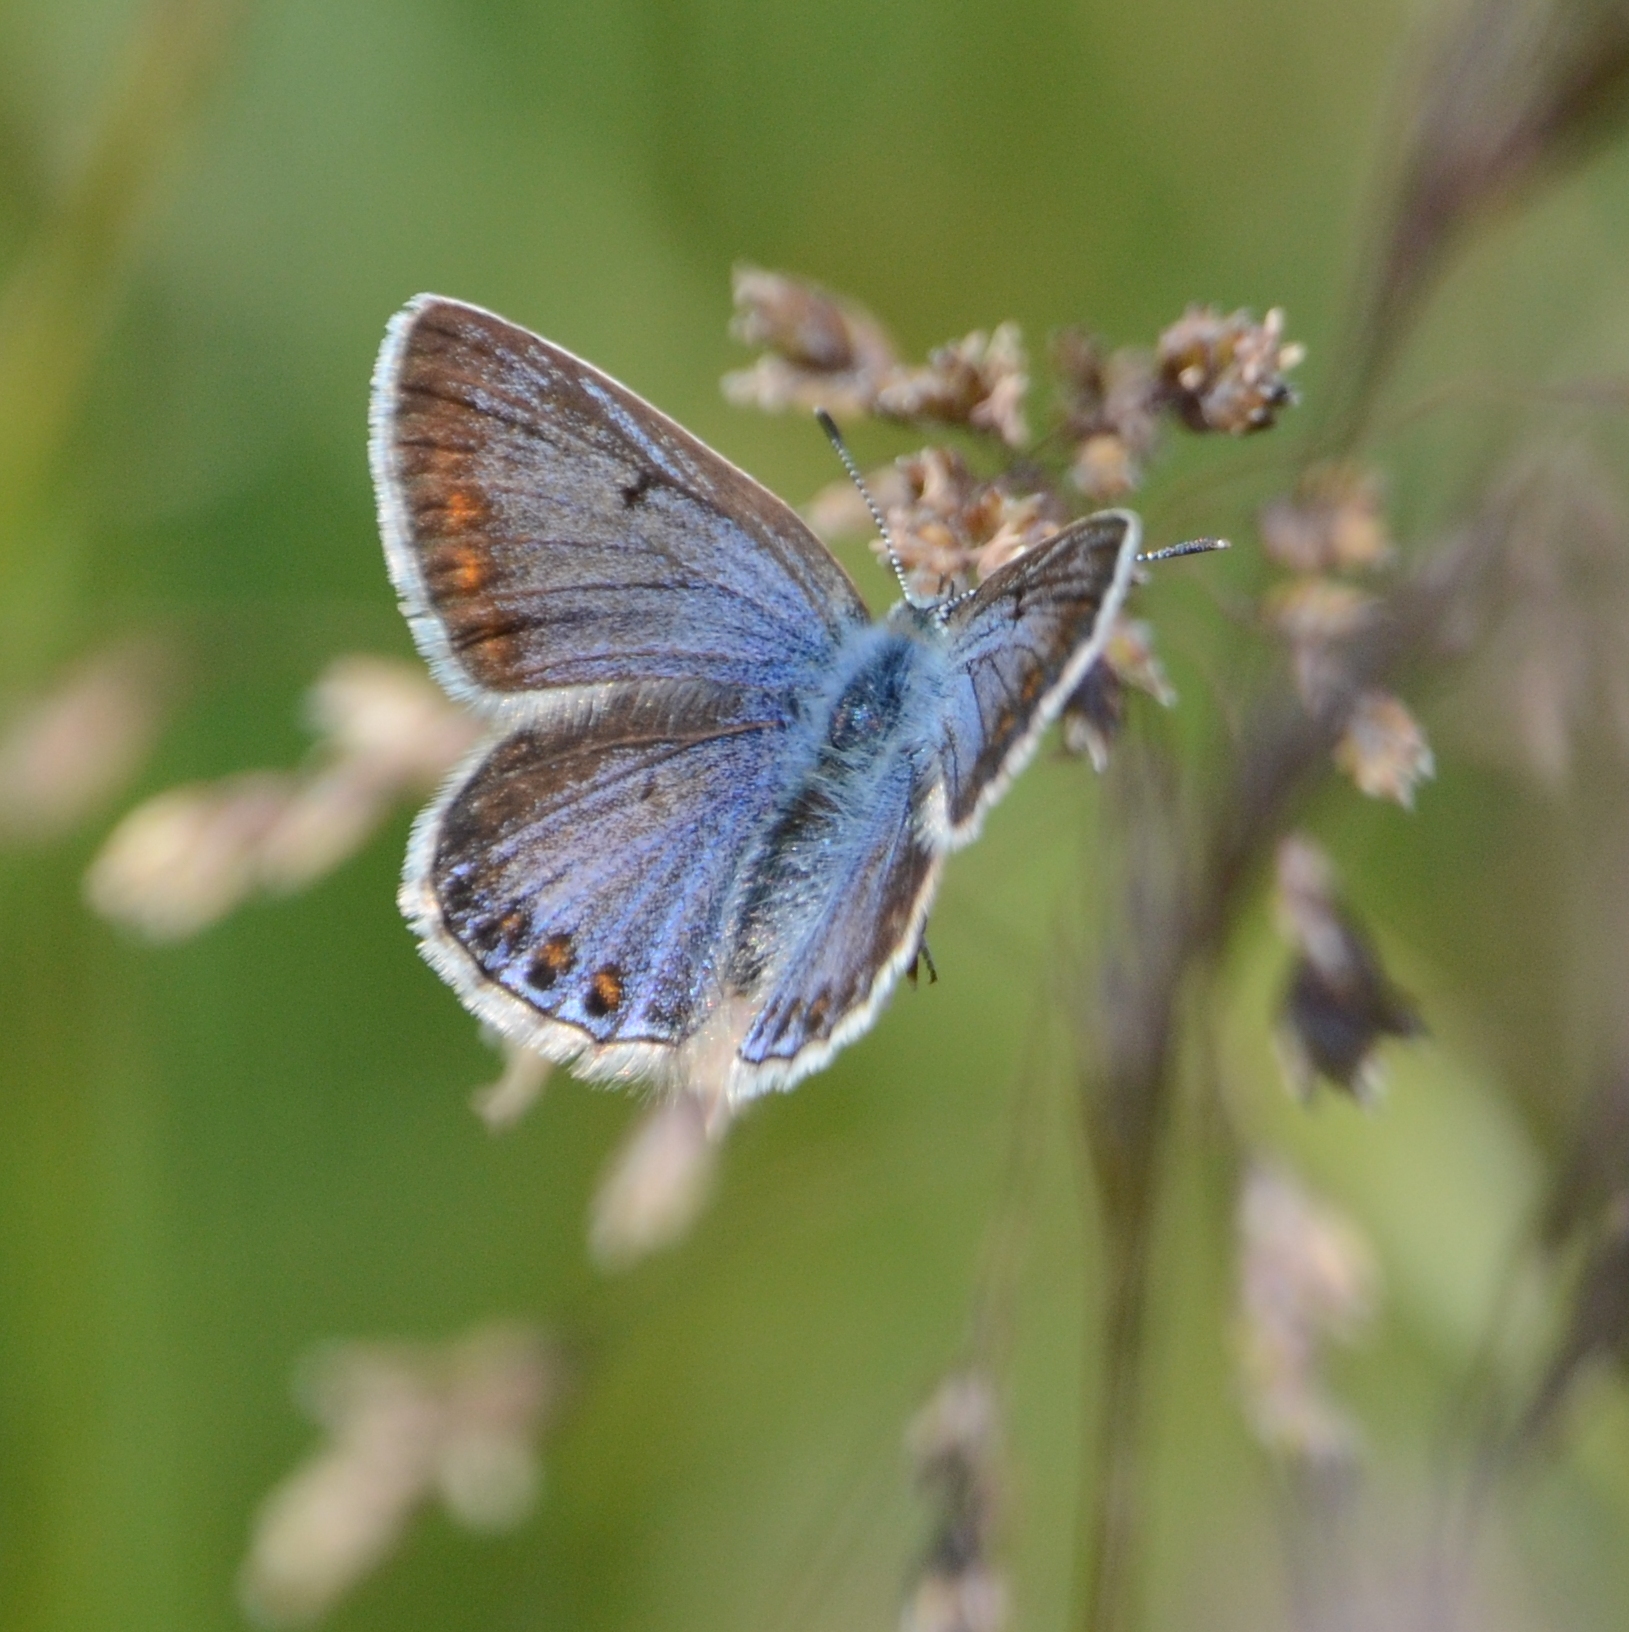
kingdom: Animalia
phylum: Arthropoda
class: Insecta
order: Lepidoptera
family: Lycaenidae
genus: Polyommatus
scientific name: Polyommatus icarus
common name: Common blue
